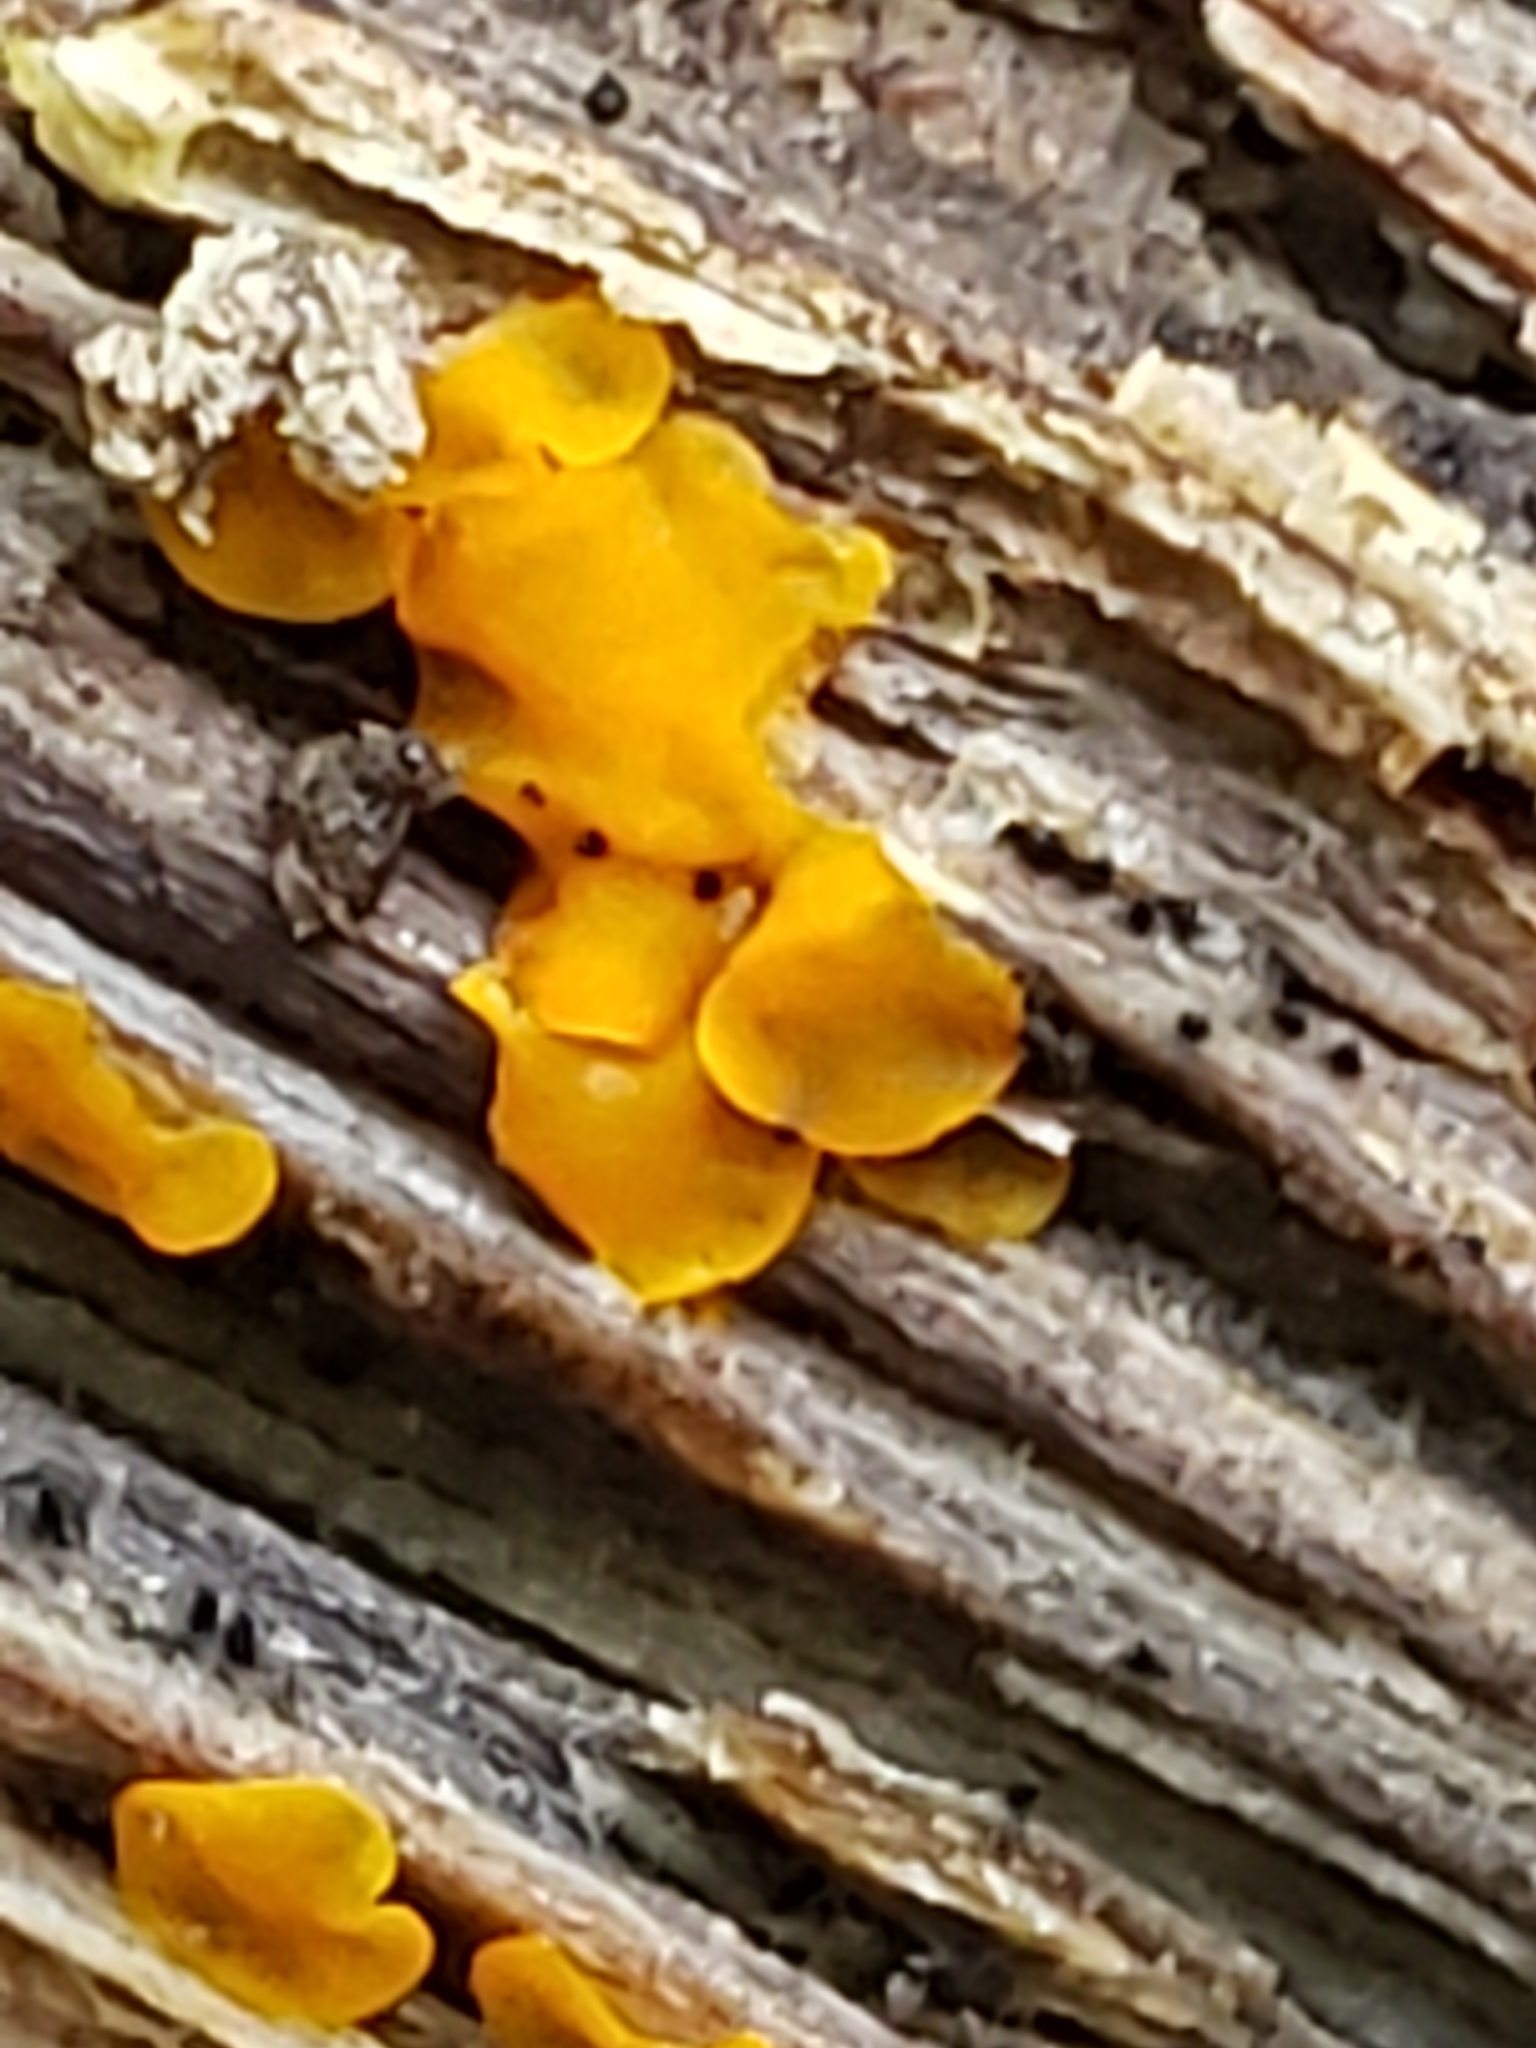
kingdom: Fungi
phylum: Ascomycota
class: Orbiliomycetes
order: Orbiliales
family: Orbiliaceae
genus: Orbilia
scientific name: Orbilia
